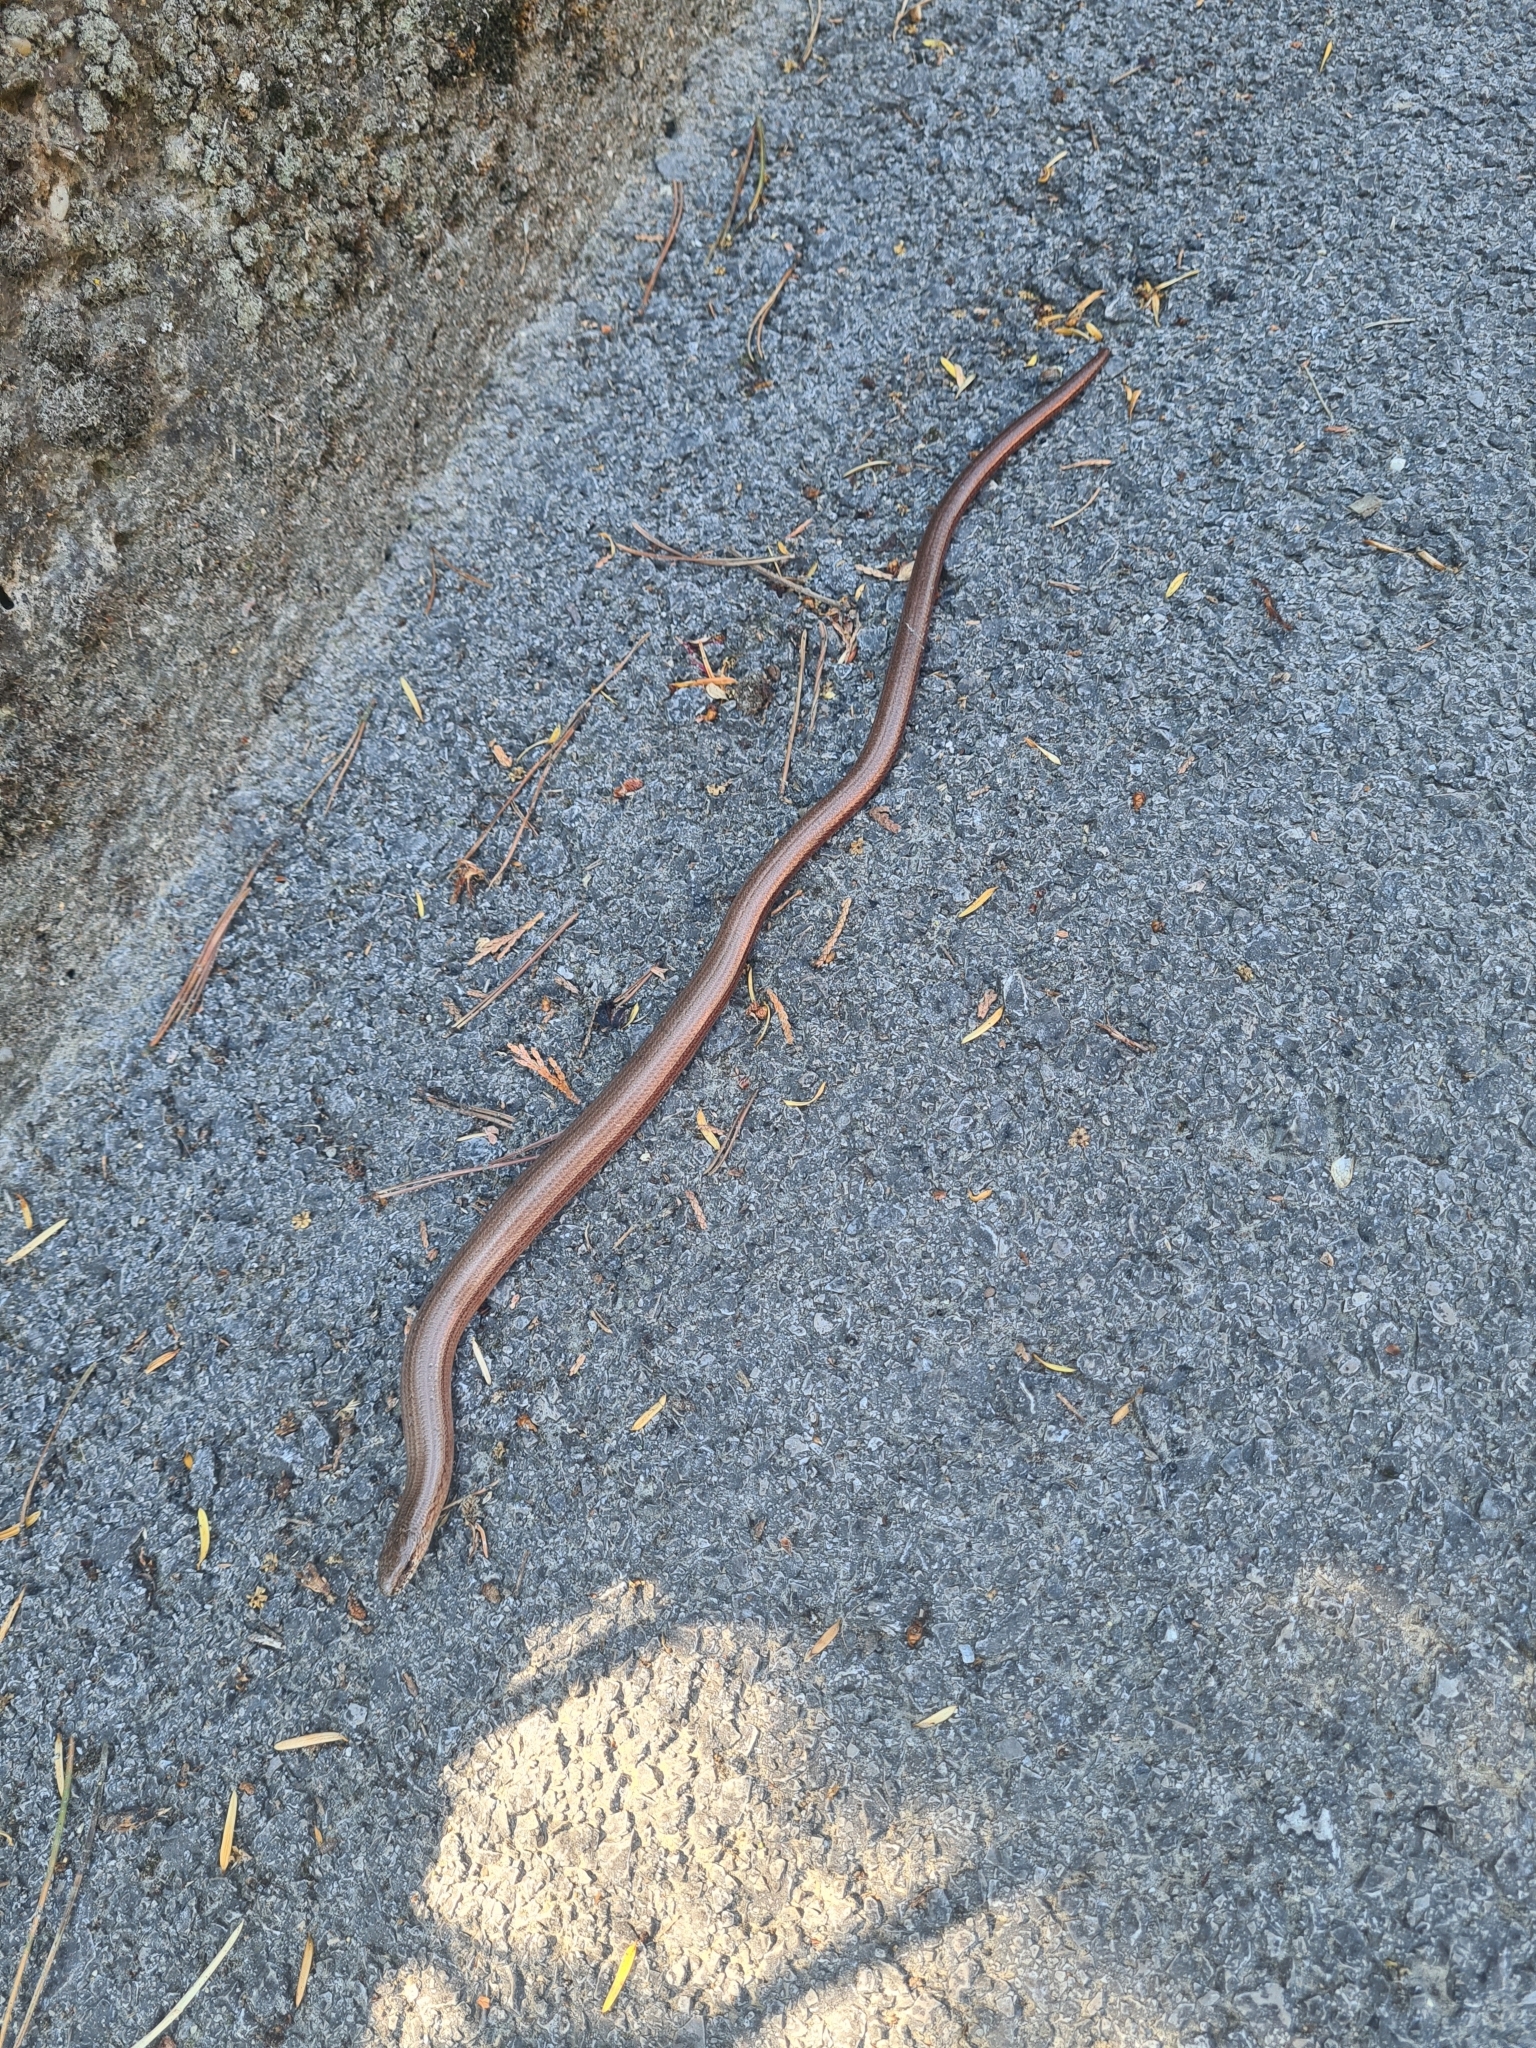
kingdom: Animalia
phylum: Chordata
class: Squamata
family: Anguidae
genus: Anguis
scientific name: Anguis fragilis
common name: Slow worm
